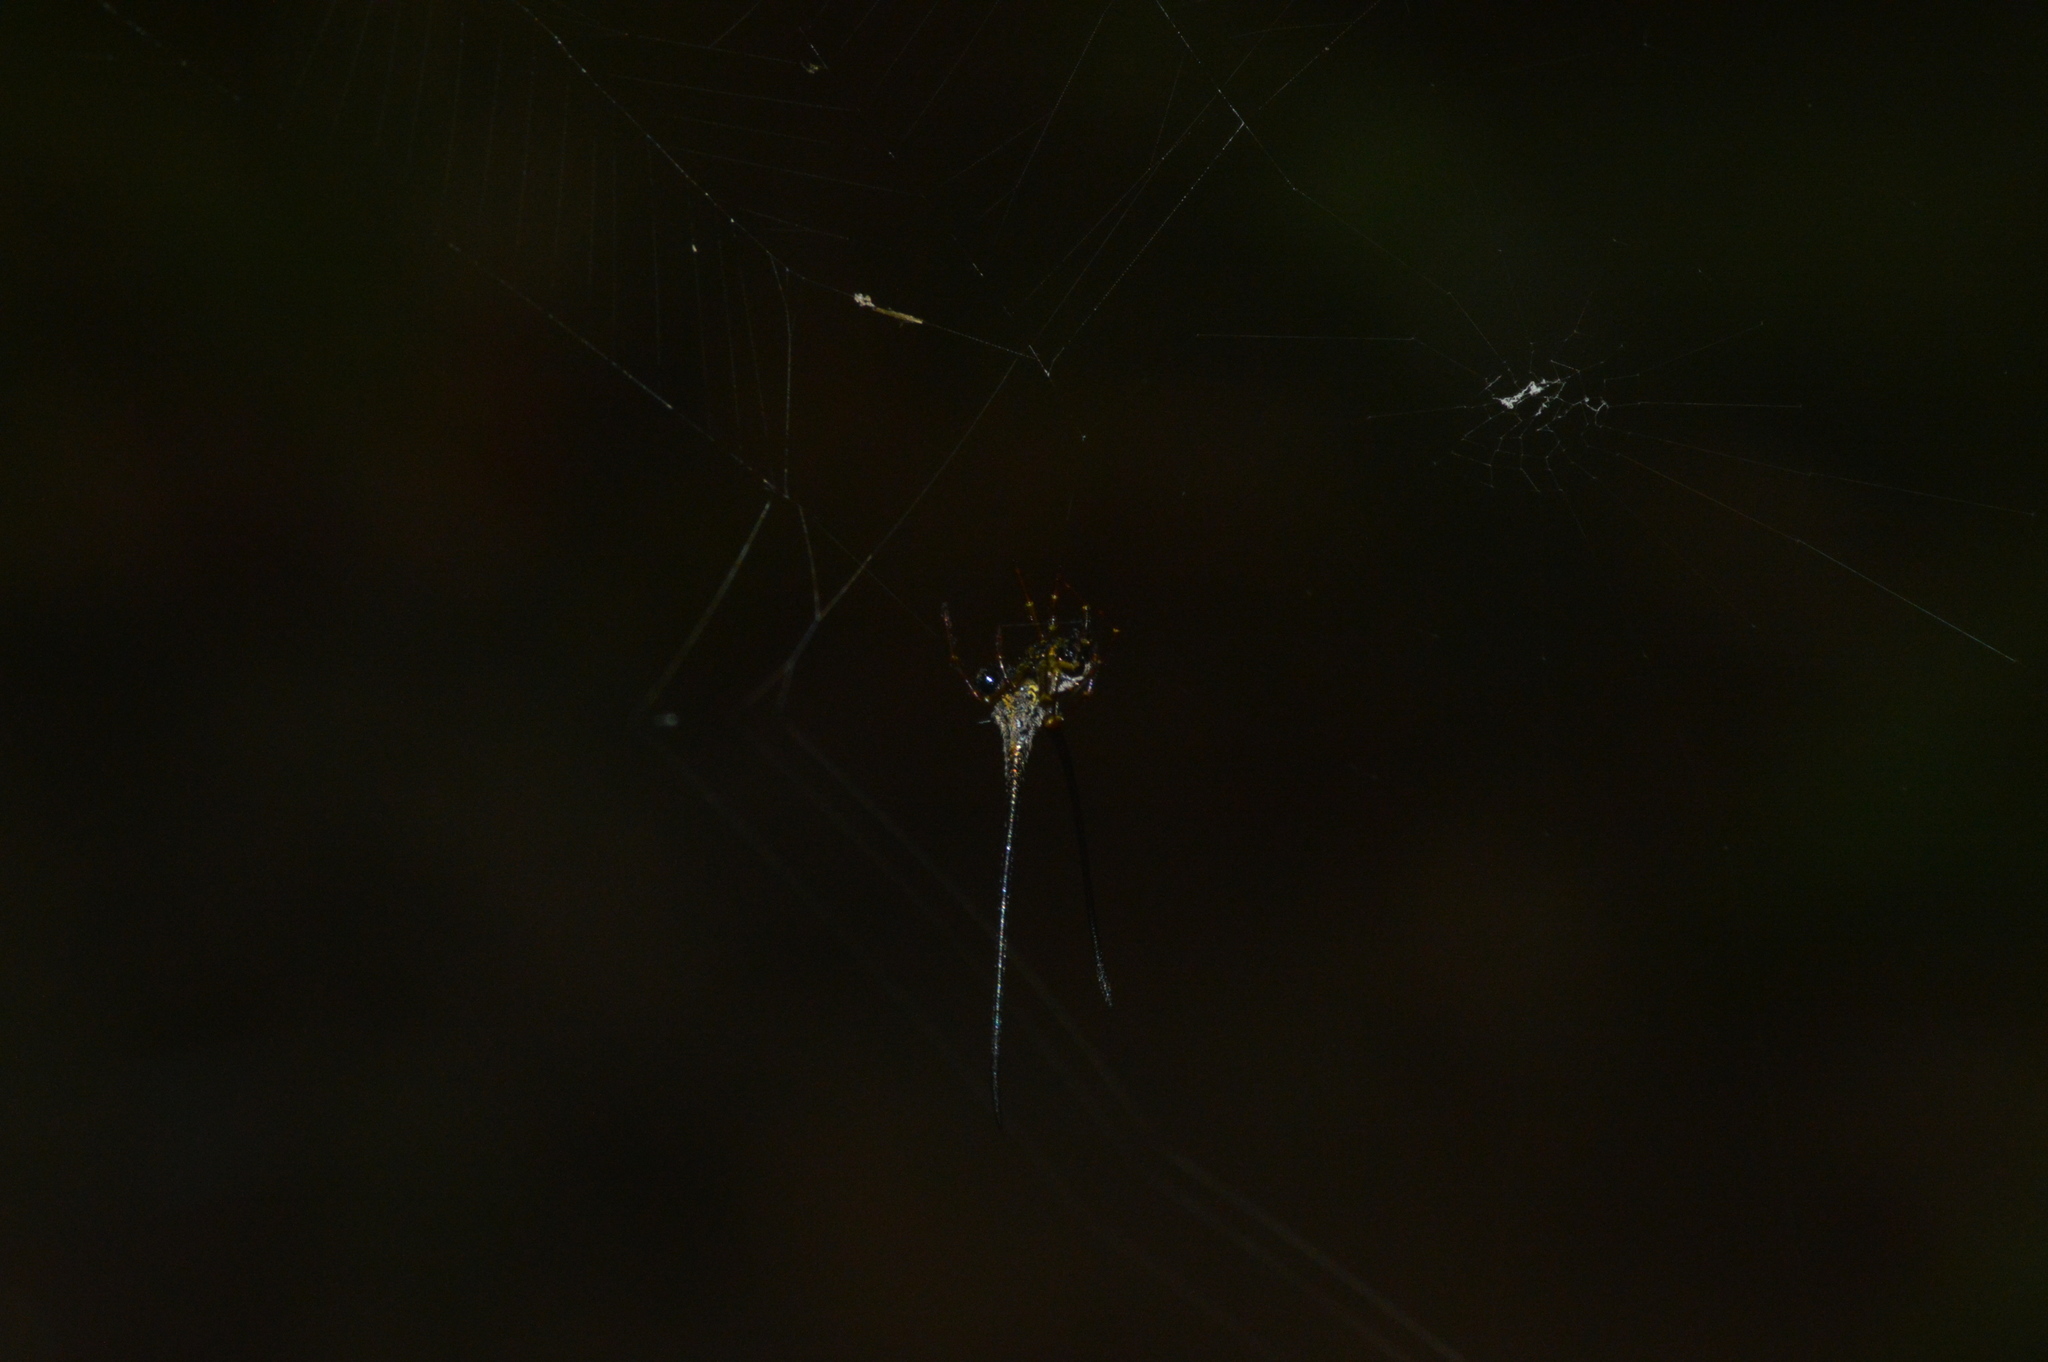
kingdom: Animalia
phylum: Arthropoda
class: Arachnida
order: Araneae
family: Araneidae
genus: Macracantha
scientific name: Macracantha arcuata
